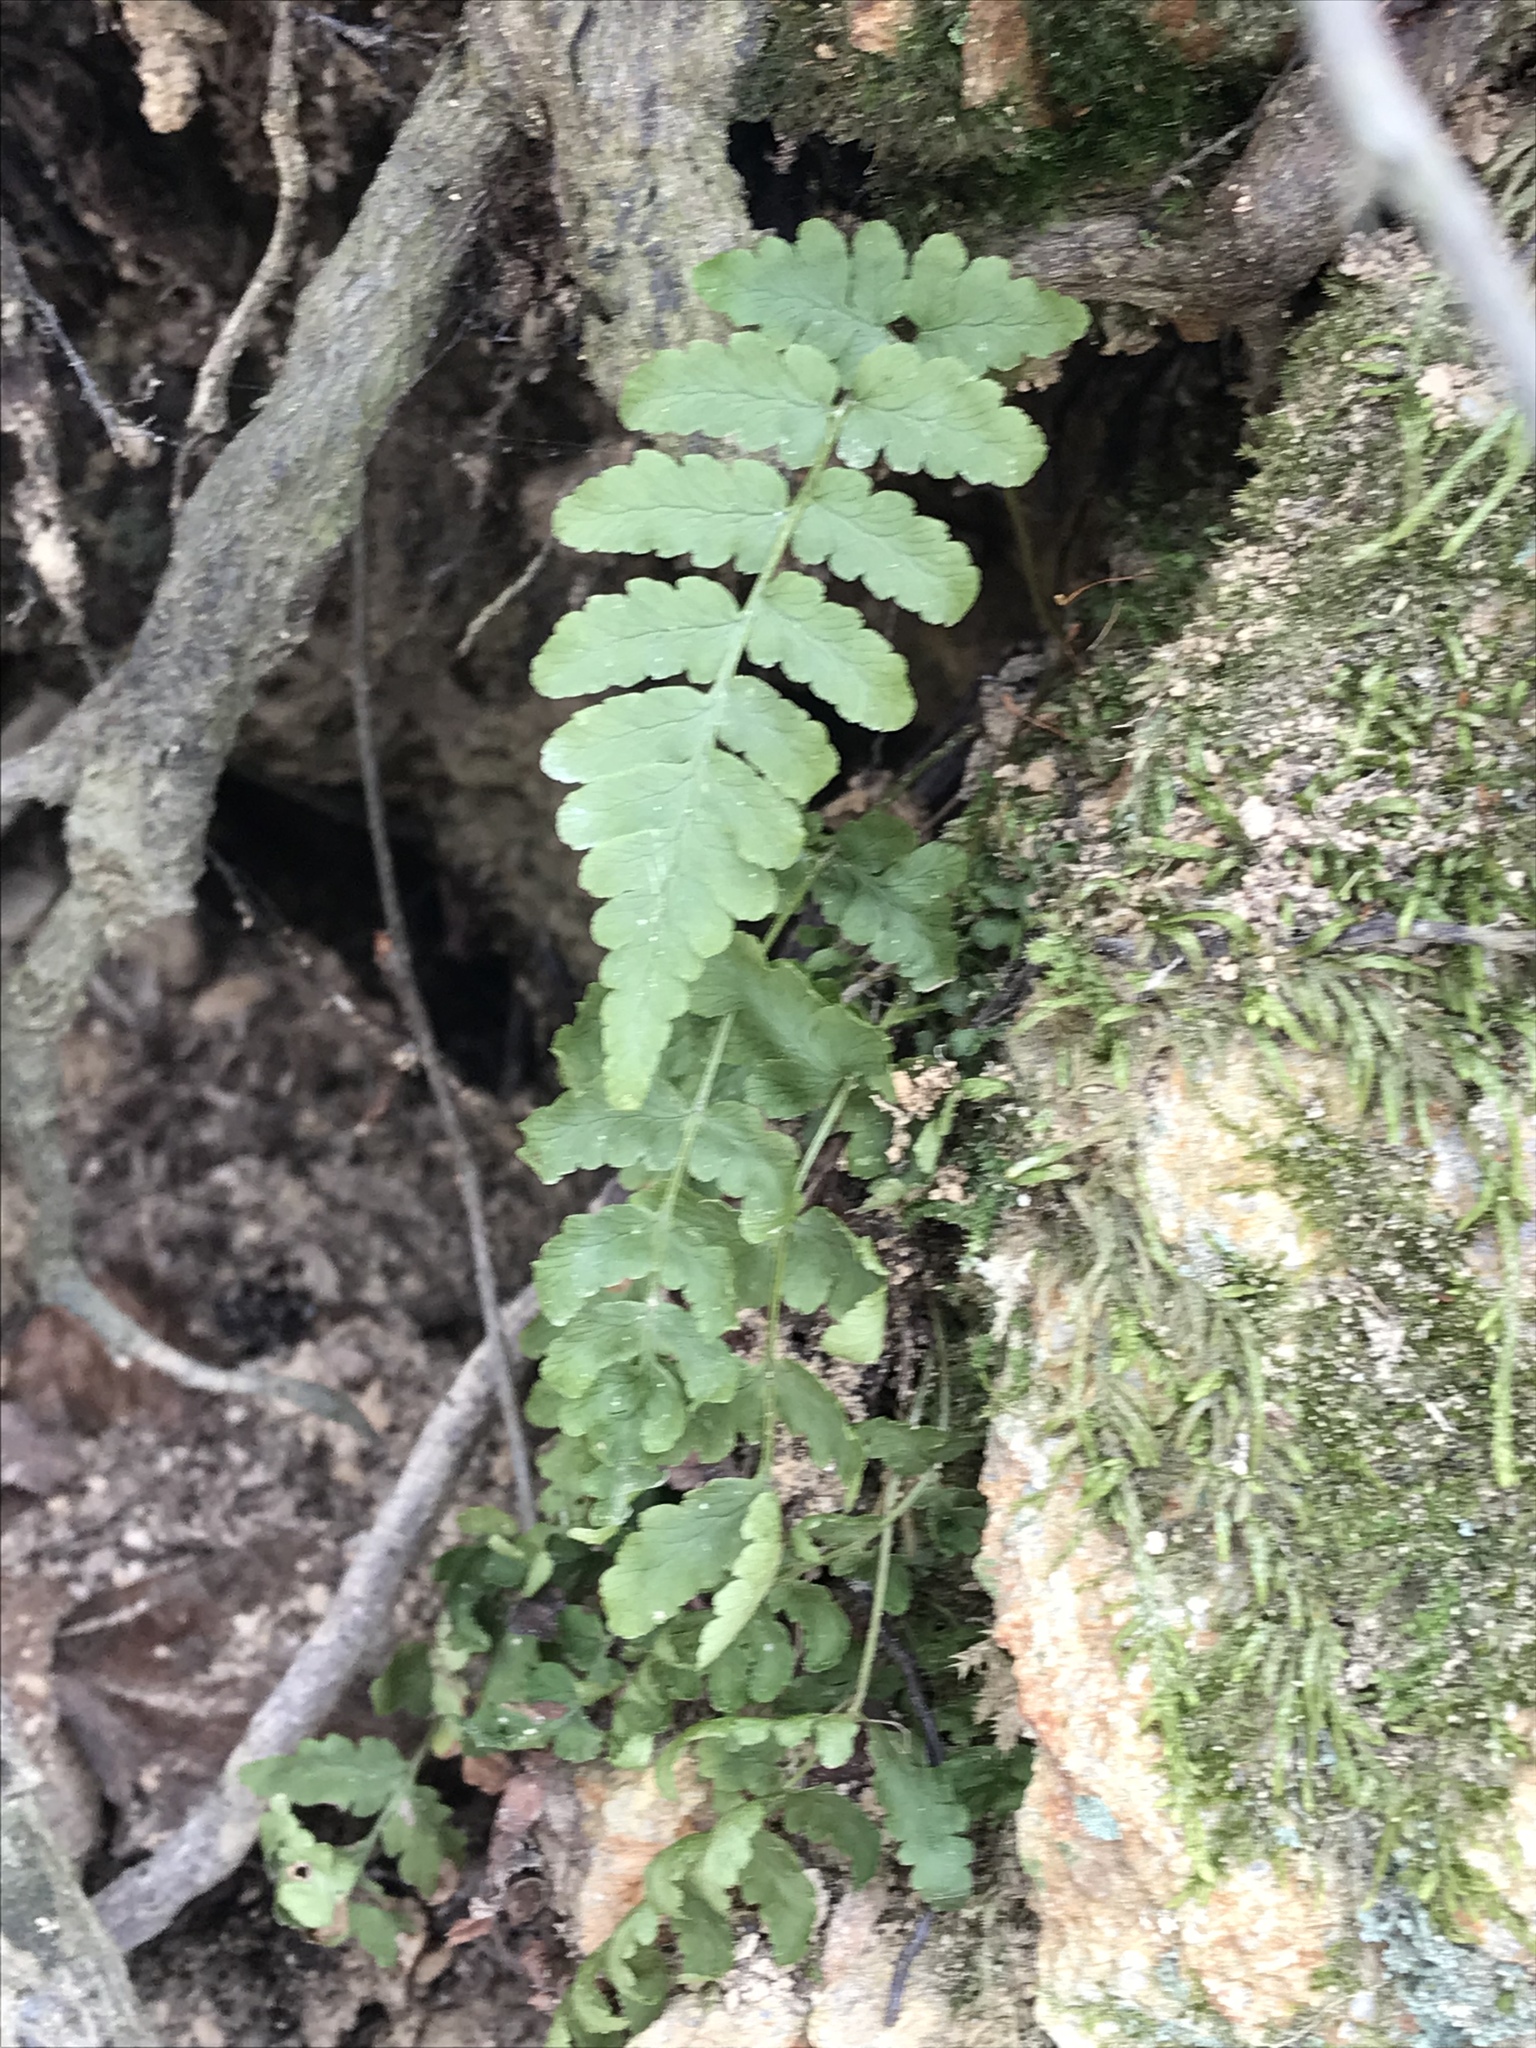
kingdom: Plantae
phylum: Tracheophyta
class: Polypodiopsida
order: Polypodiales
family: Dryopteridaceae
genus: Dryopteris
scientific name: Dryopteris marginalis
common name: Marginal wood fern
